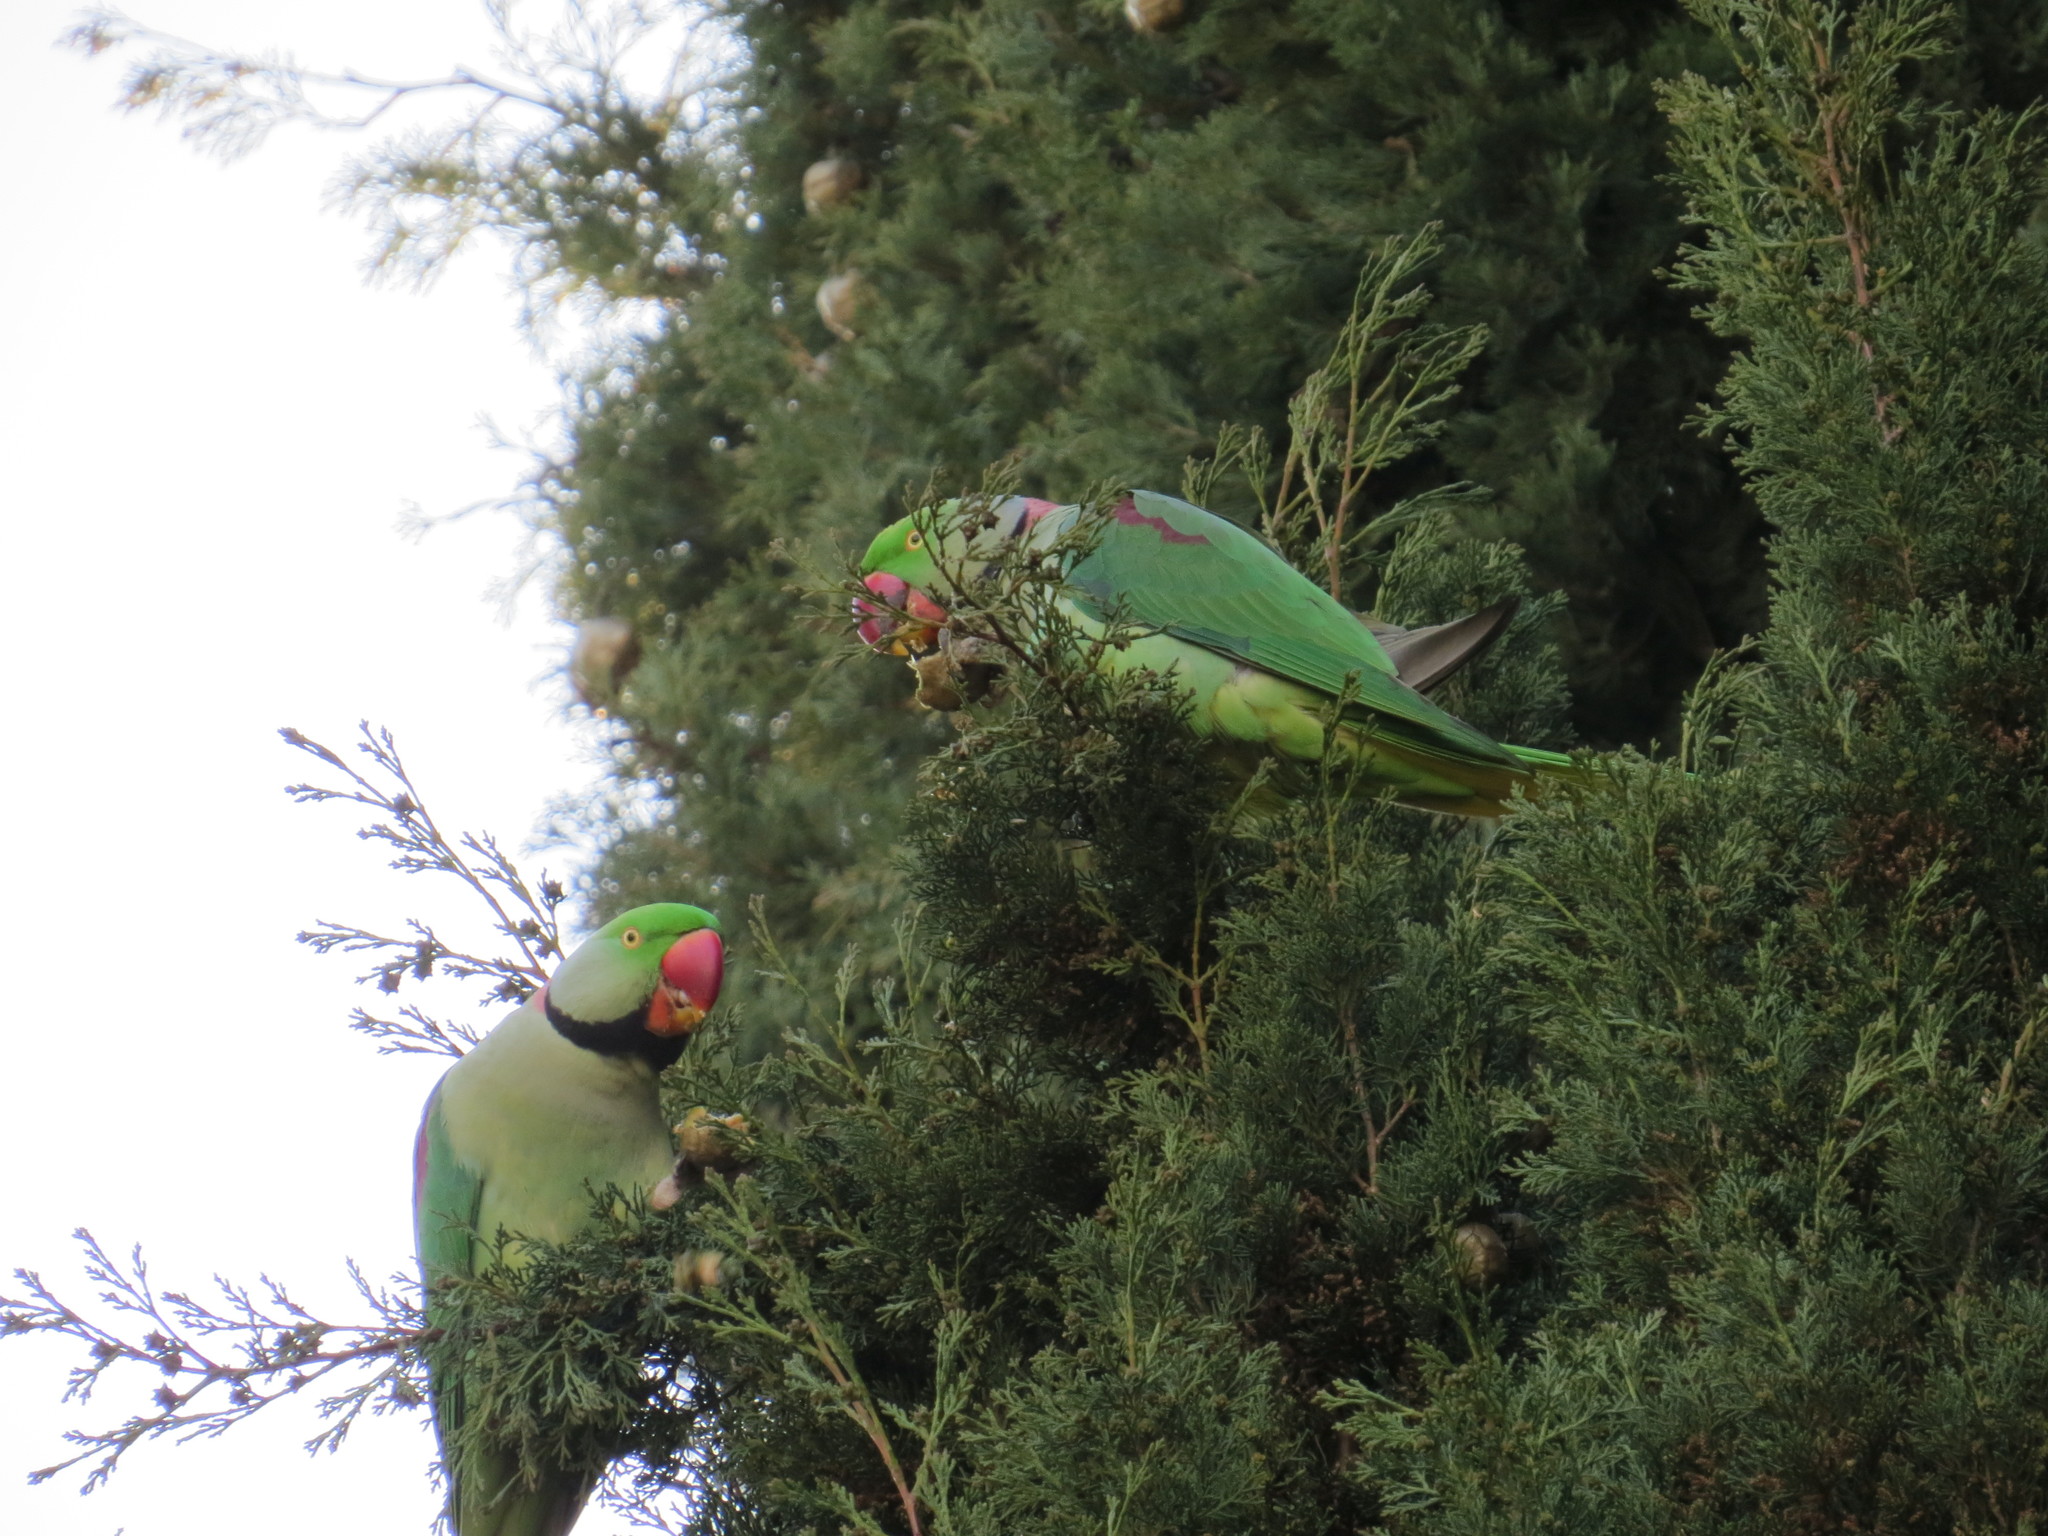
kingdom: Animalia
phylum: Chordata
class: Aves
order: Psittaciformes
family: Psittacidae
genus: Psittacula
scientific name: Psittacula eupatria
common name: Alexandrine parakeet
